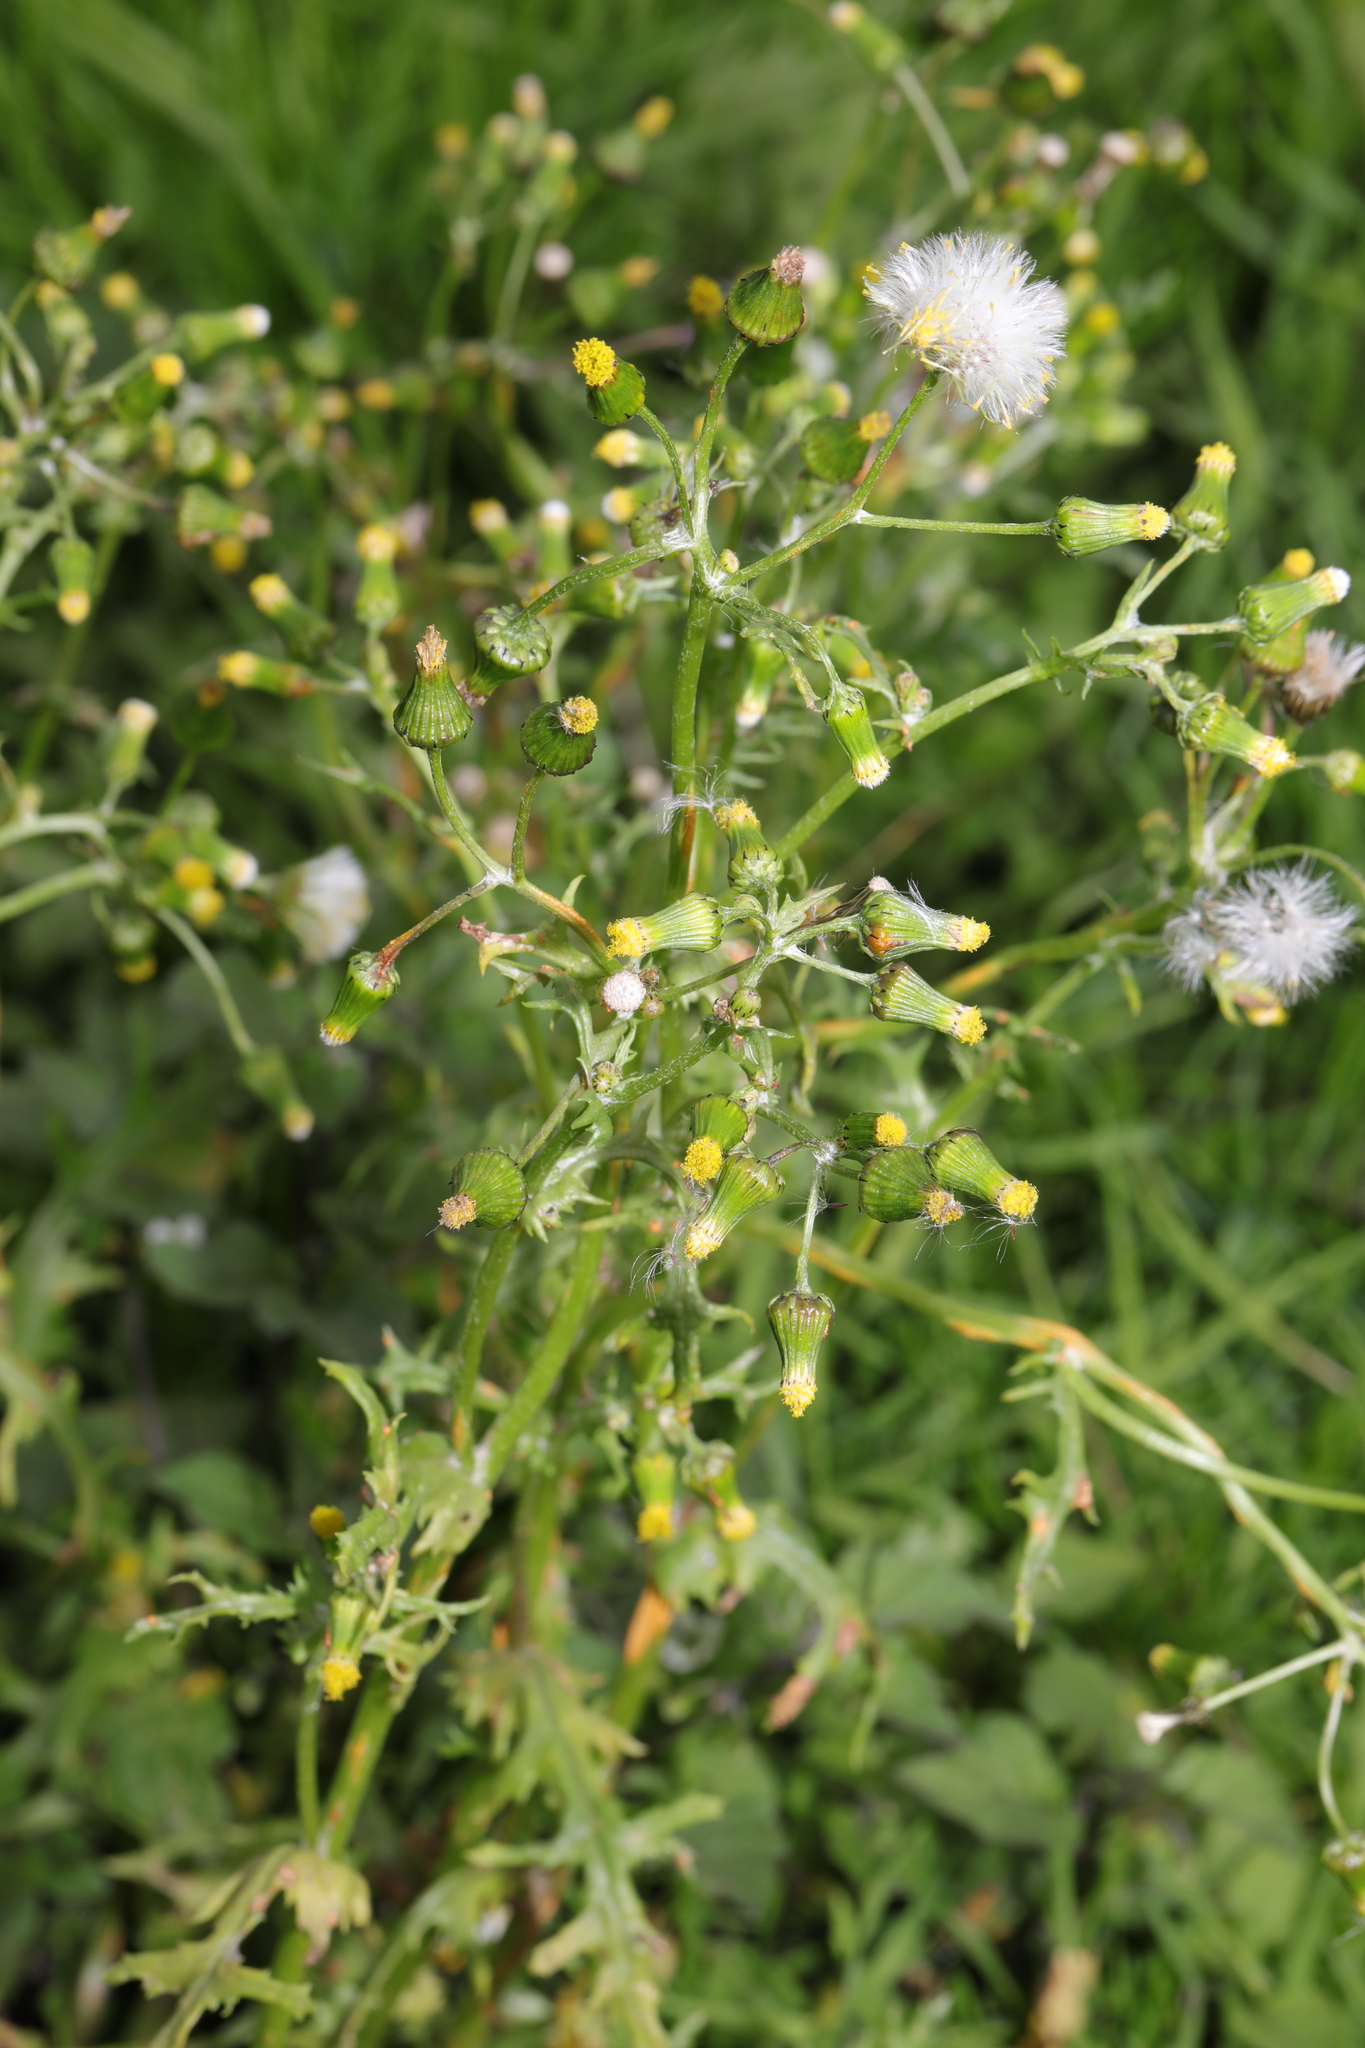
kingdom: Plantae
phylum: Tracheophyta
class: Magnoliopsida
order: Asterales
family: Asteraceae
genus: Senecio
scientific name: Senecio vulgaris
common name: Old-man-in-the-spring
